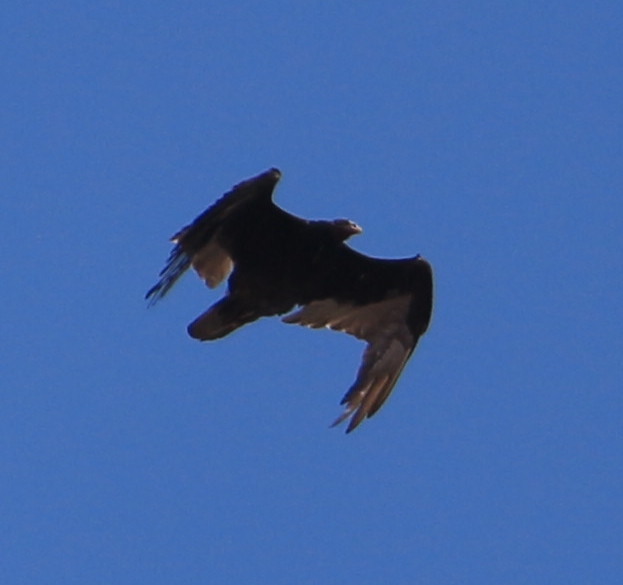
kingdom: Animalia
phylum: Chordata
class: Aves
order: Accipitriformes
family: Cathartidae
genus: Cathartes
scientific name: Cathartes aura
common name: Turkey vulture
